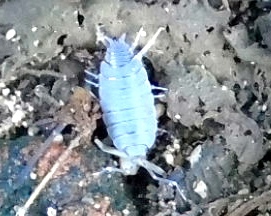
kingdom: Animalia
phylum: Arthropoda
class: Malacostraca
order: Isopoda
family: Porcellionidae
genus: Porcellionides
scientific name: Porcellionides
